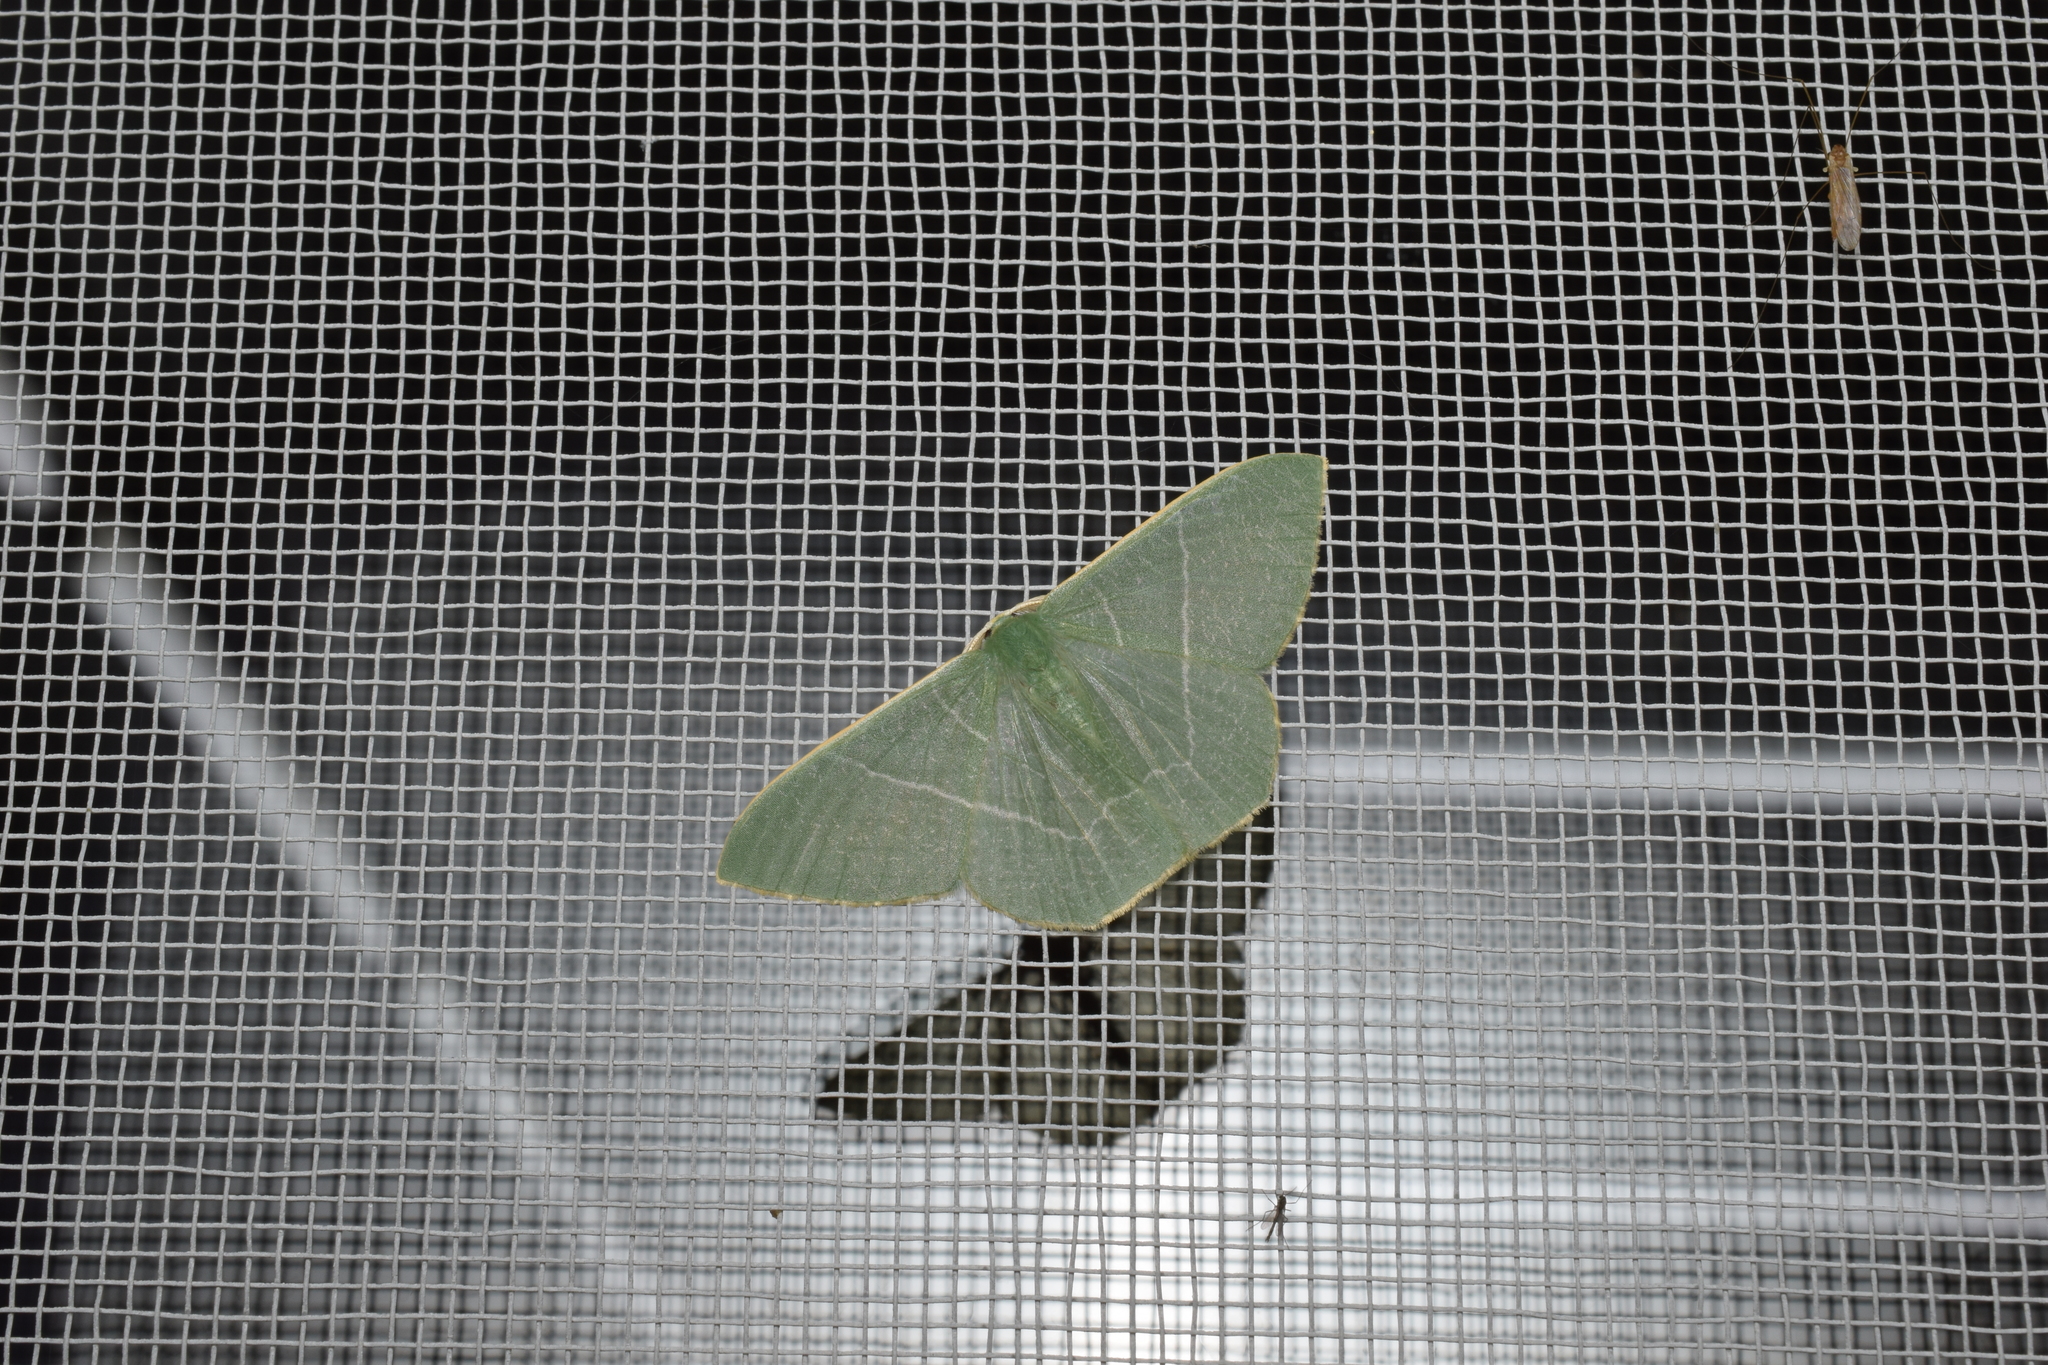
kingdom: Animalia
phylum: Arthropoda
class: Insecta
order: Lepidoptera
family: Geometridae
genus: Pelagodes
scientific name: Pelagodes subquadraria
